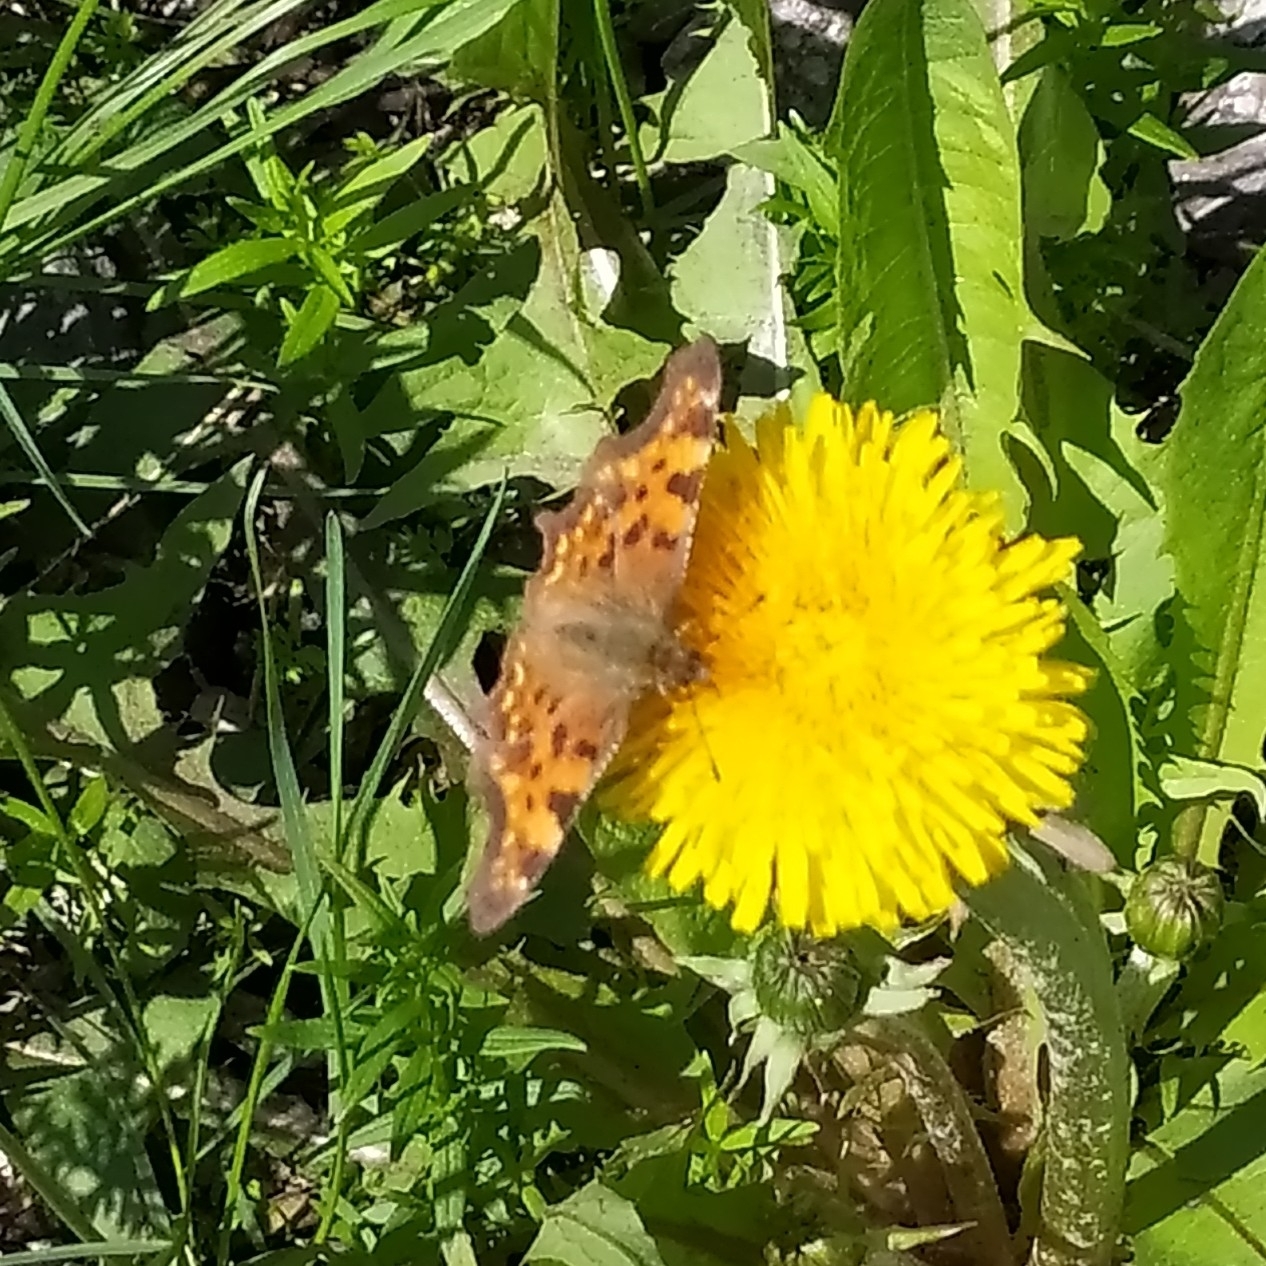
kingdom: Animalia
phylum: Arthropoda
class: Insecta
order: Lepidoptera
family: Nymphalidae
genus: Polygonia
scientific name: Polygonia c-album
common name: Comma
